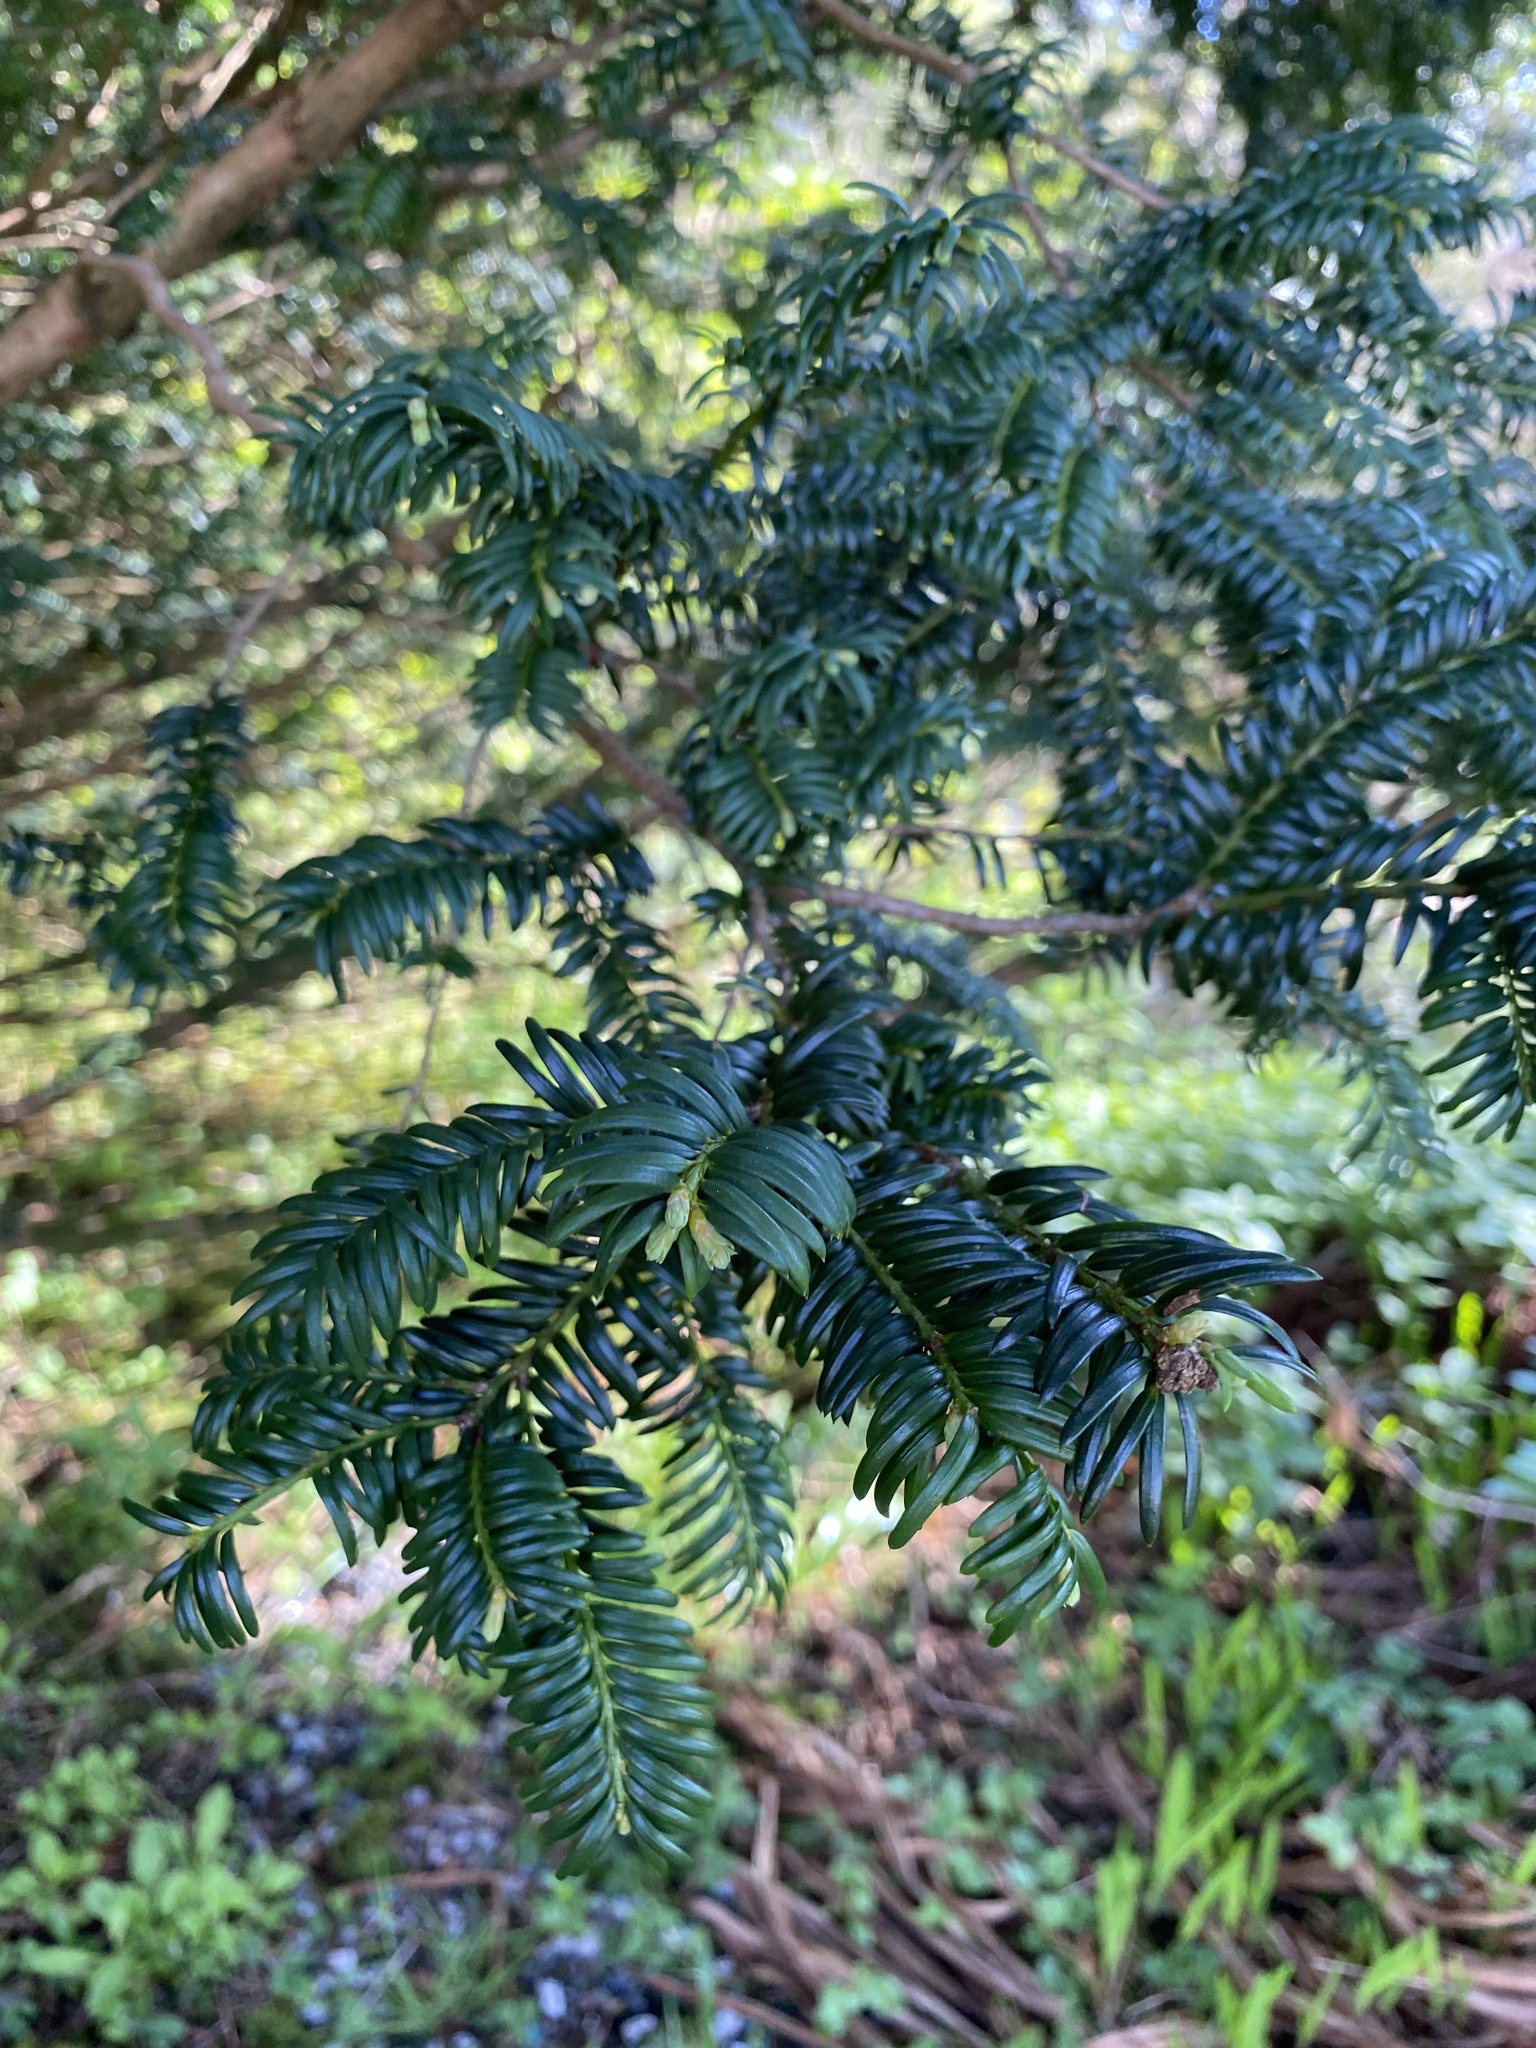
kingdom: Plantae
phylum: Tracheophyta
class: Pinopsida
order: Pinales
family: Taxaceae
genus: Taxus
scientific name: Taxus baccata
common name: Yew
